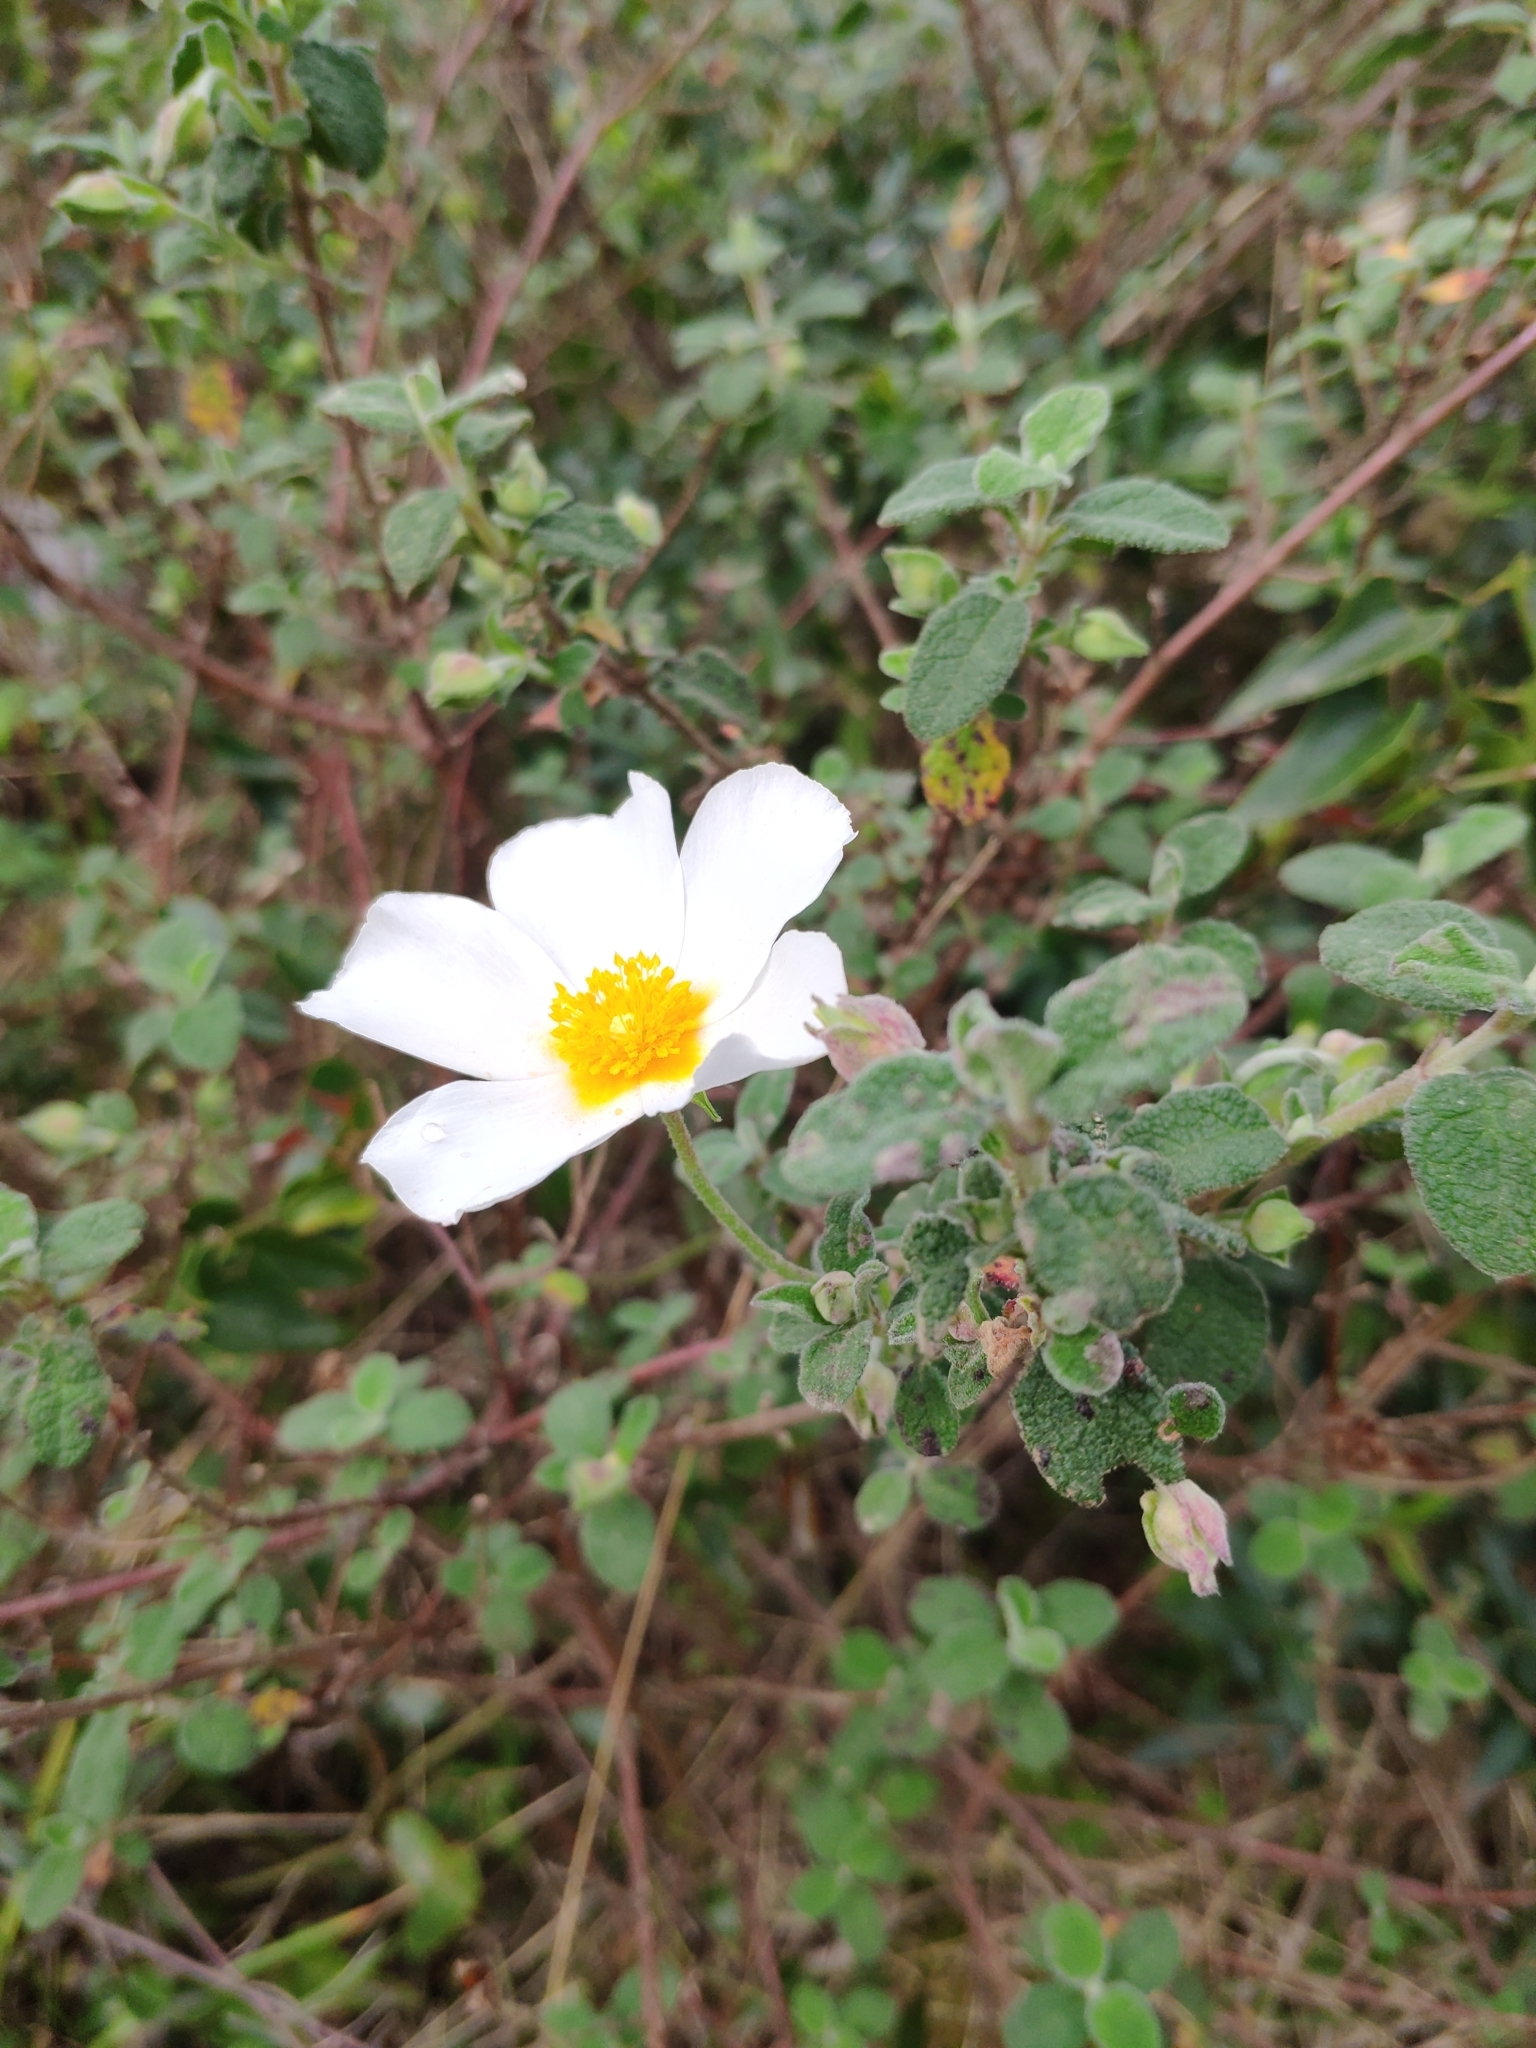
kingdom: Plantae
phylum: Tracheophyta
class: Magnoliopsida
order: Malvales
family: Cistaceae
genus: Cistus
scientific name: Cistus salviifolius
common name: Salvia cistus
